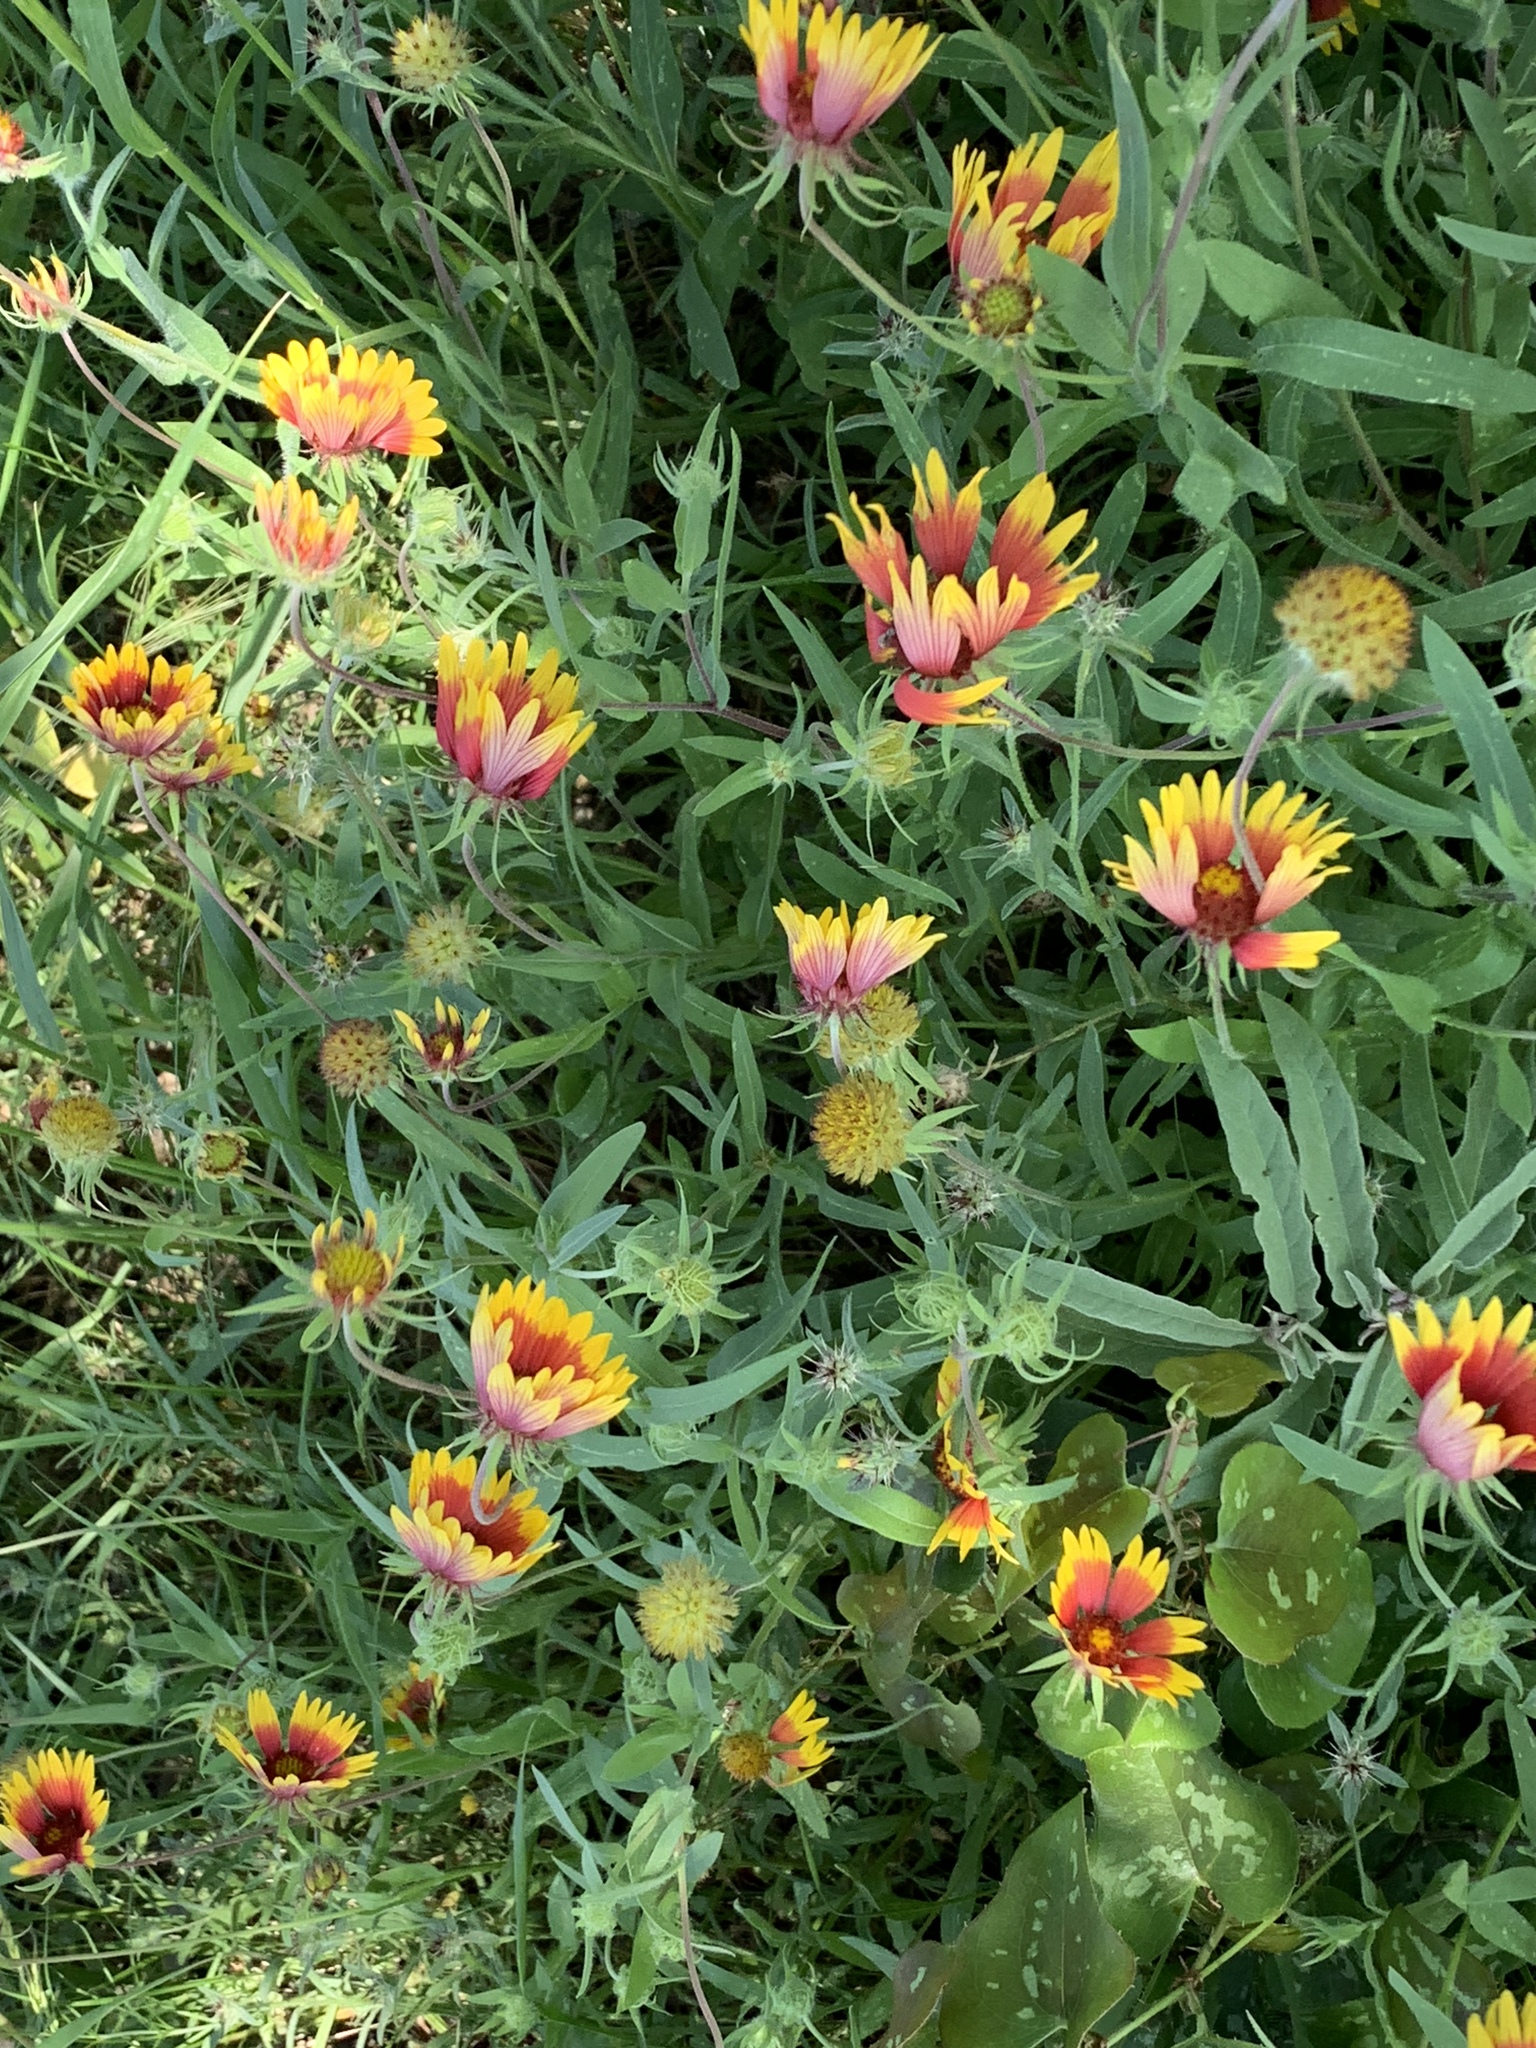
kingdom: Plantae
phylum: Tracheophyta
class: Magnoliopsida
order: Asterales
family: Asteraceae
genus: Gaillardia
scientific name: Gaillardia pulchella
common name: Firewheel
